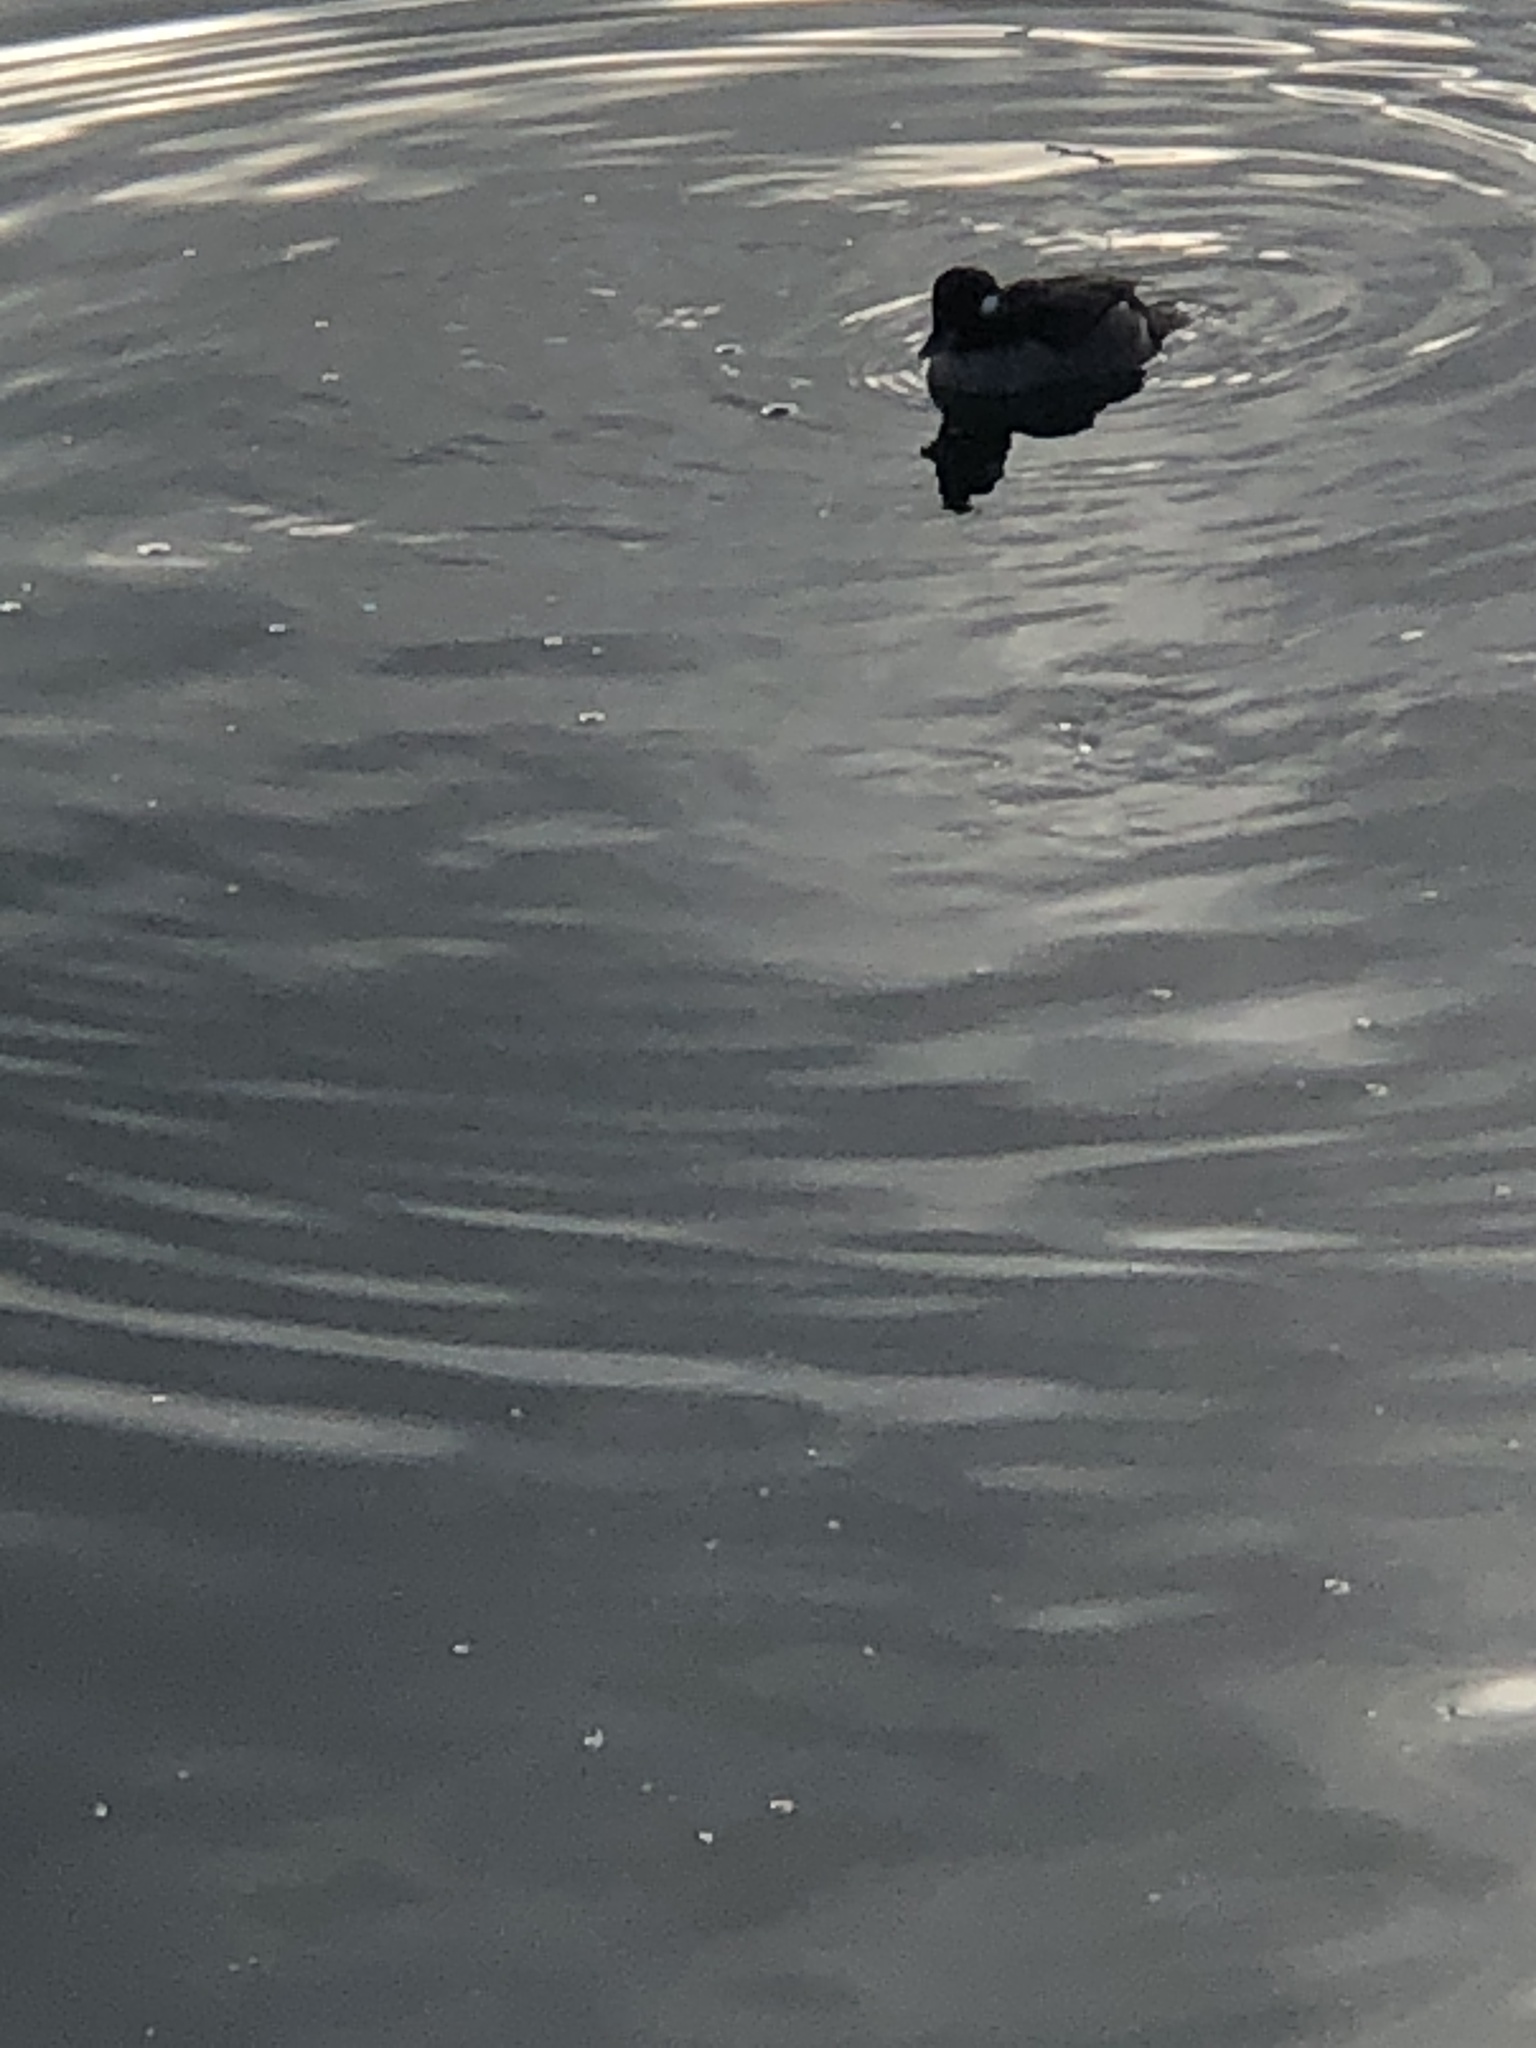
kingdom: Animalia
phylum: Chordata
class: Aves
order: Anseriformes
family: Anatidae
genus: Bucephala
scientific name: Bucephala albeola
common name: Bufflehead
